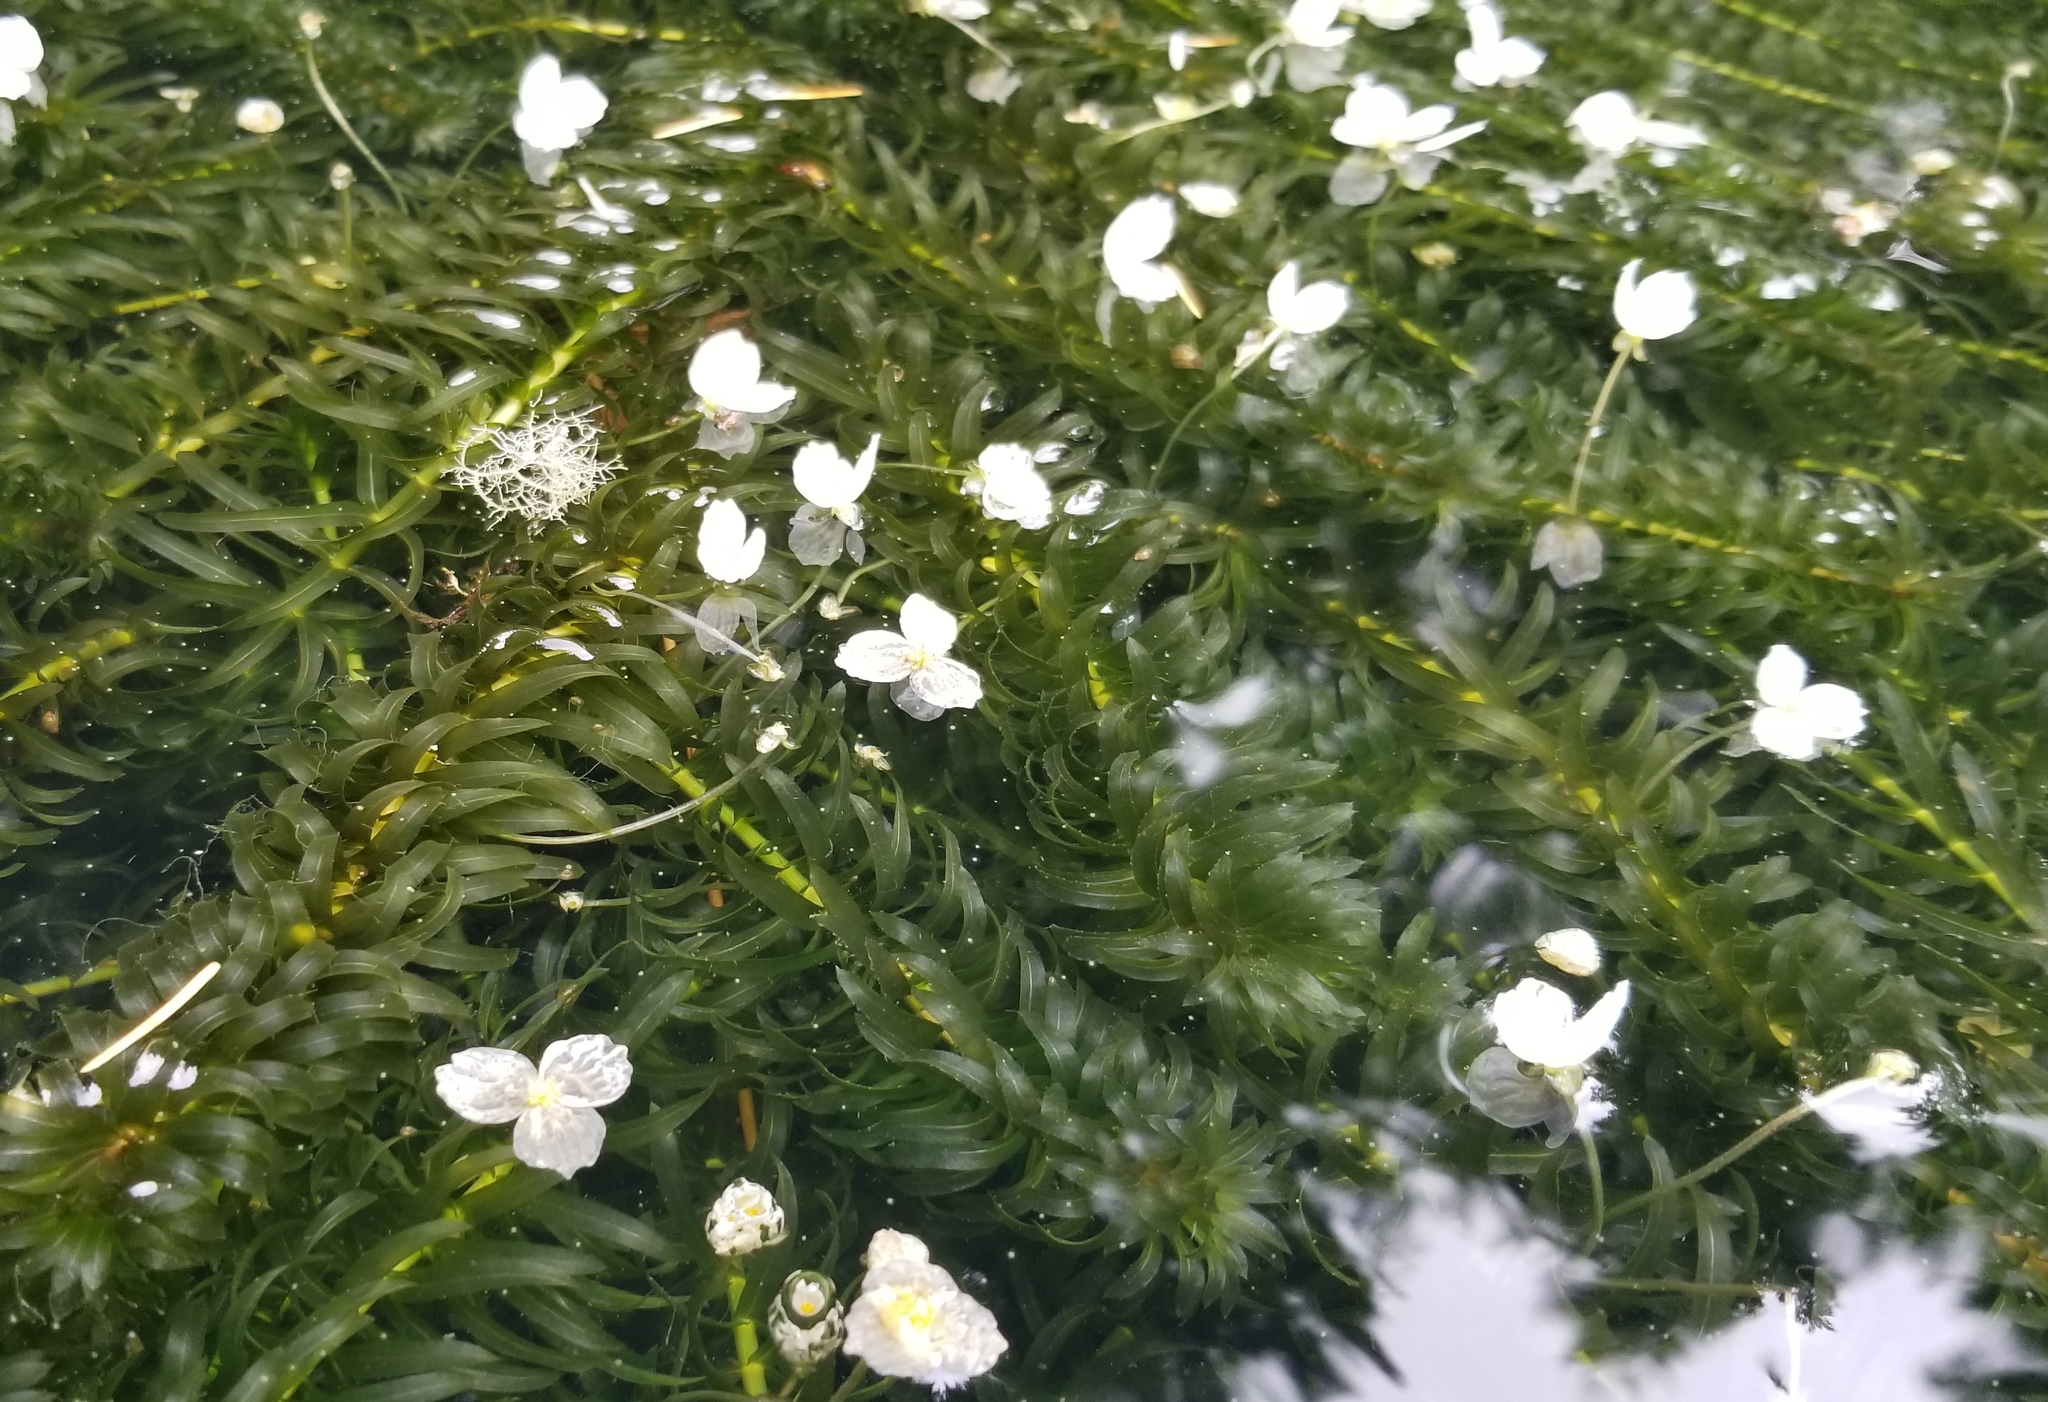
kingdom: Plantae
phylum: Tracheophyta
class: Liliopsida
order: Alismatales
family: Hydrocharitaceae
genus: Elodea
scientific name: Elodea densa
